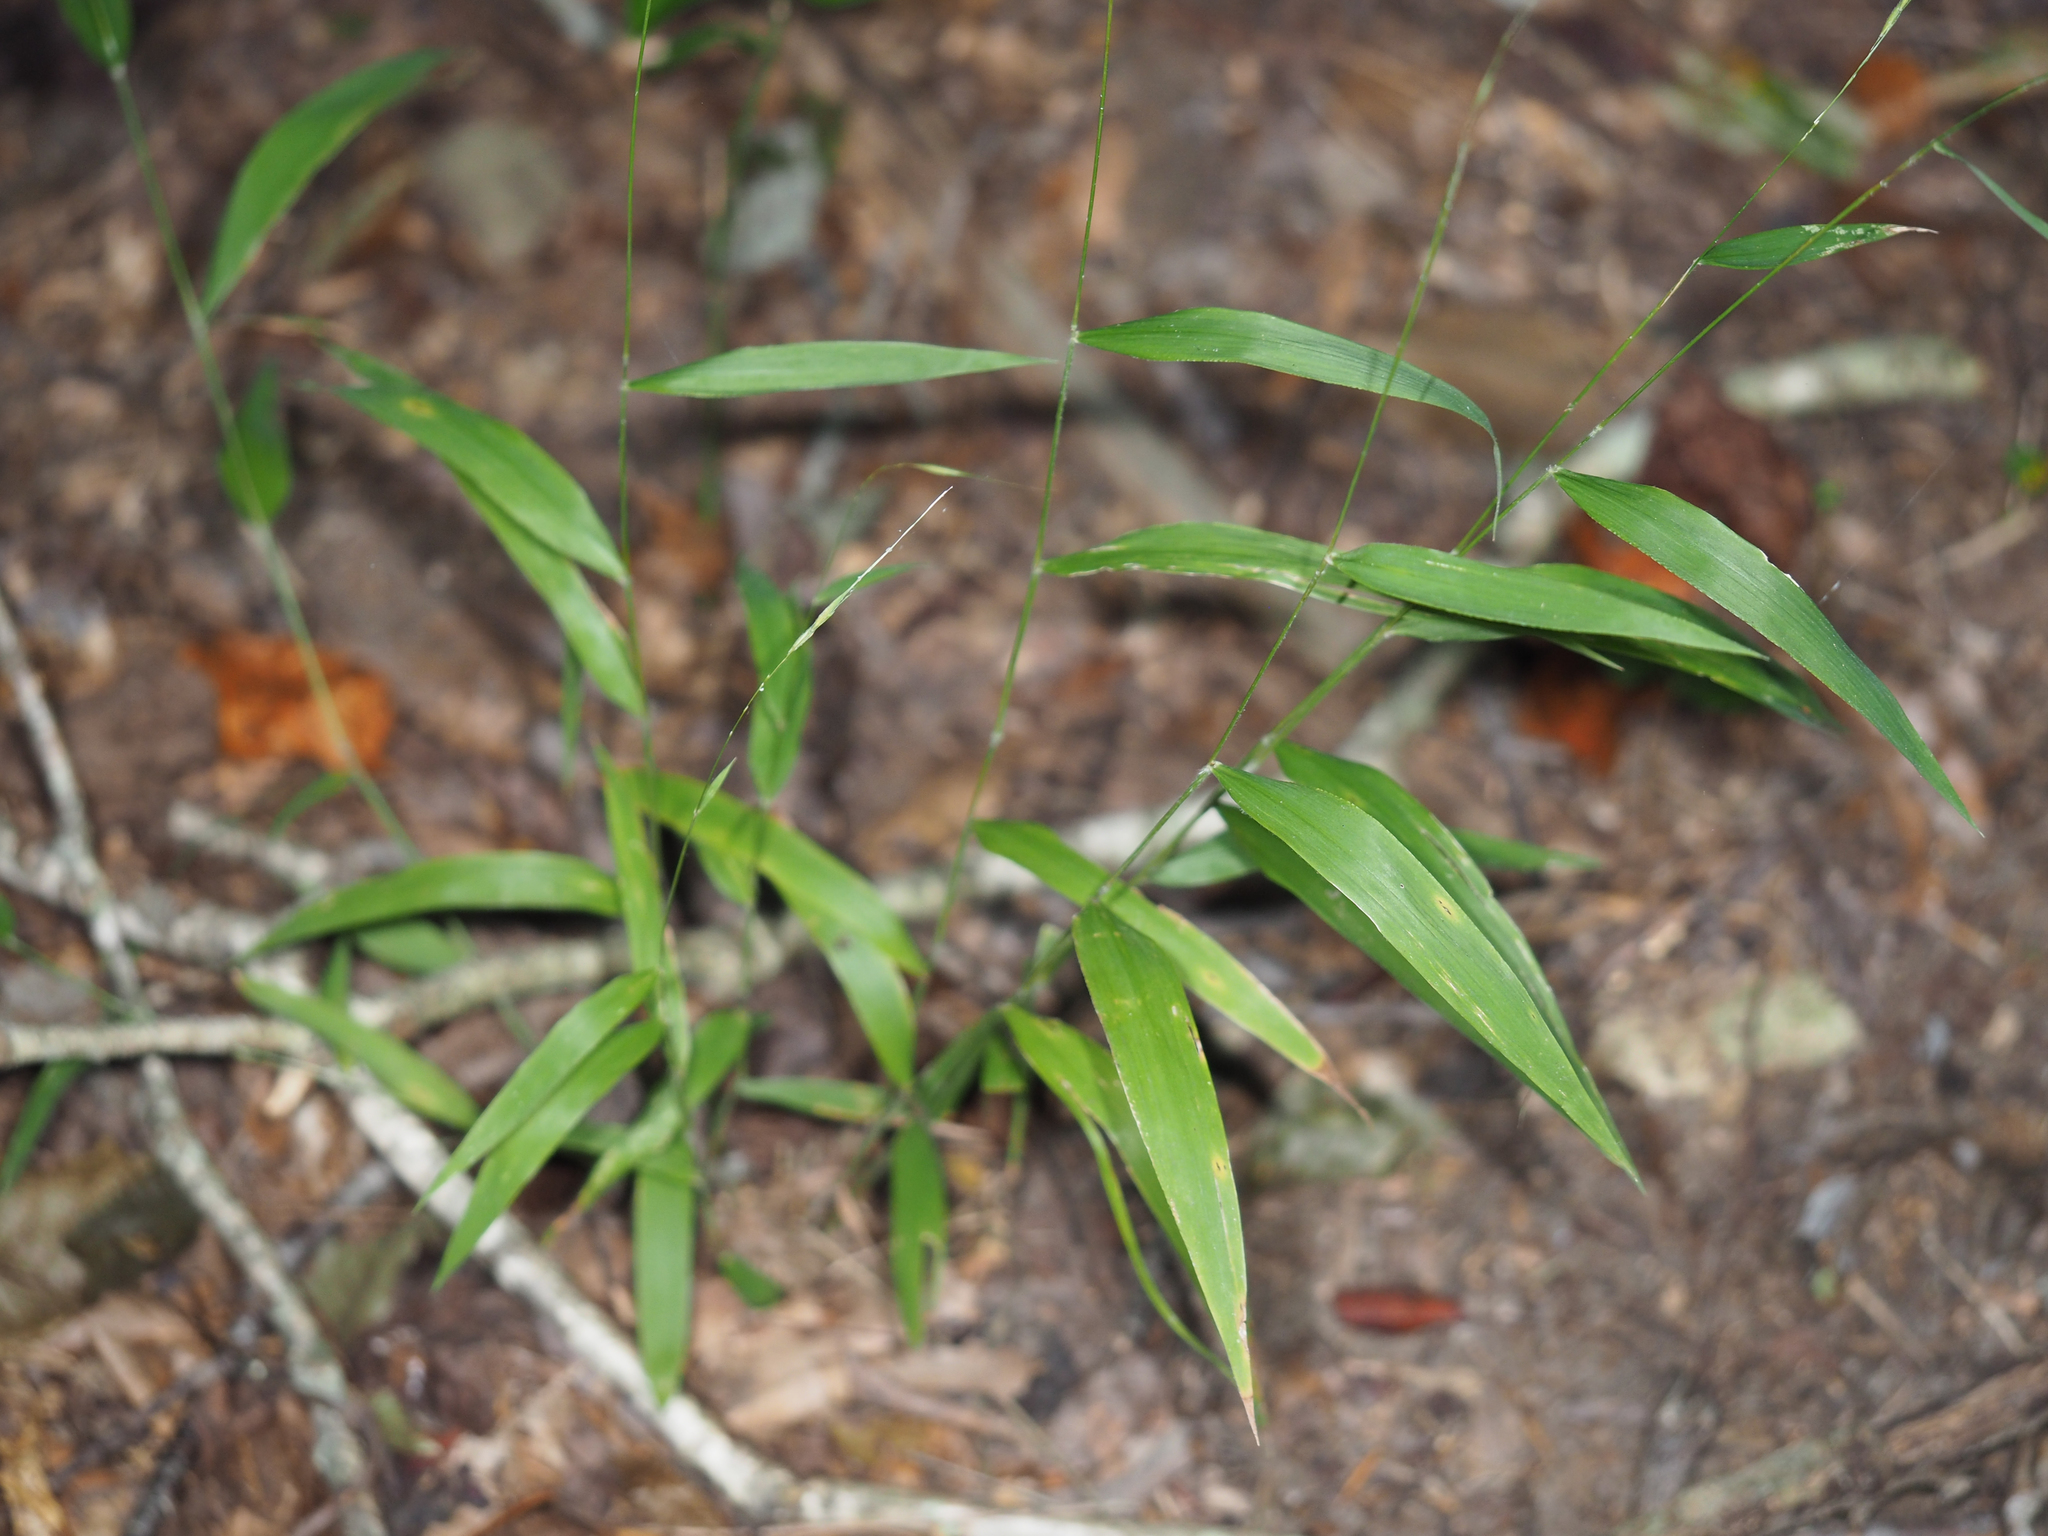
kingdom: Plantae
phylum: Tracheophyta
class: Liliopsida
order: Poales
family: Poaceae
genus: Brachyelytrum
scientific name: Brachyelytrum erectum
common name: Bearded shorthusk
